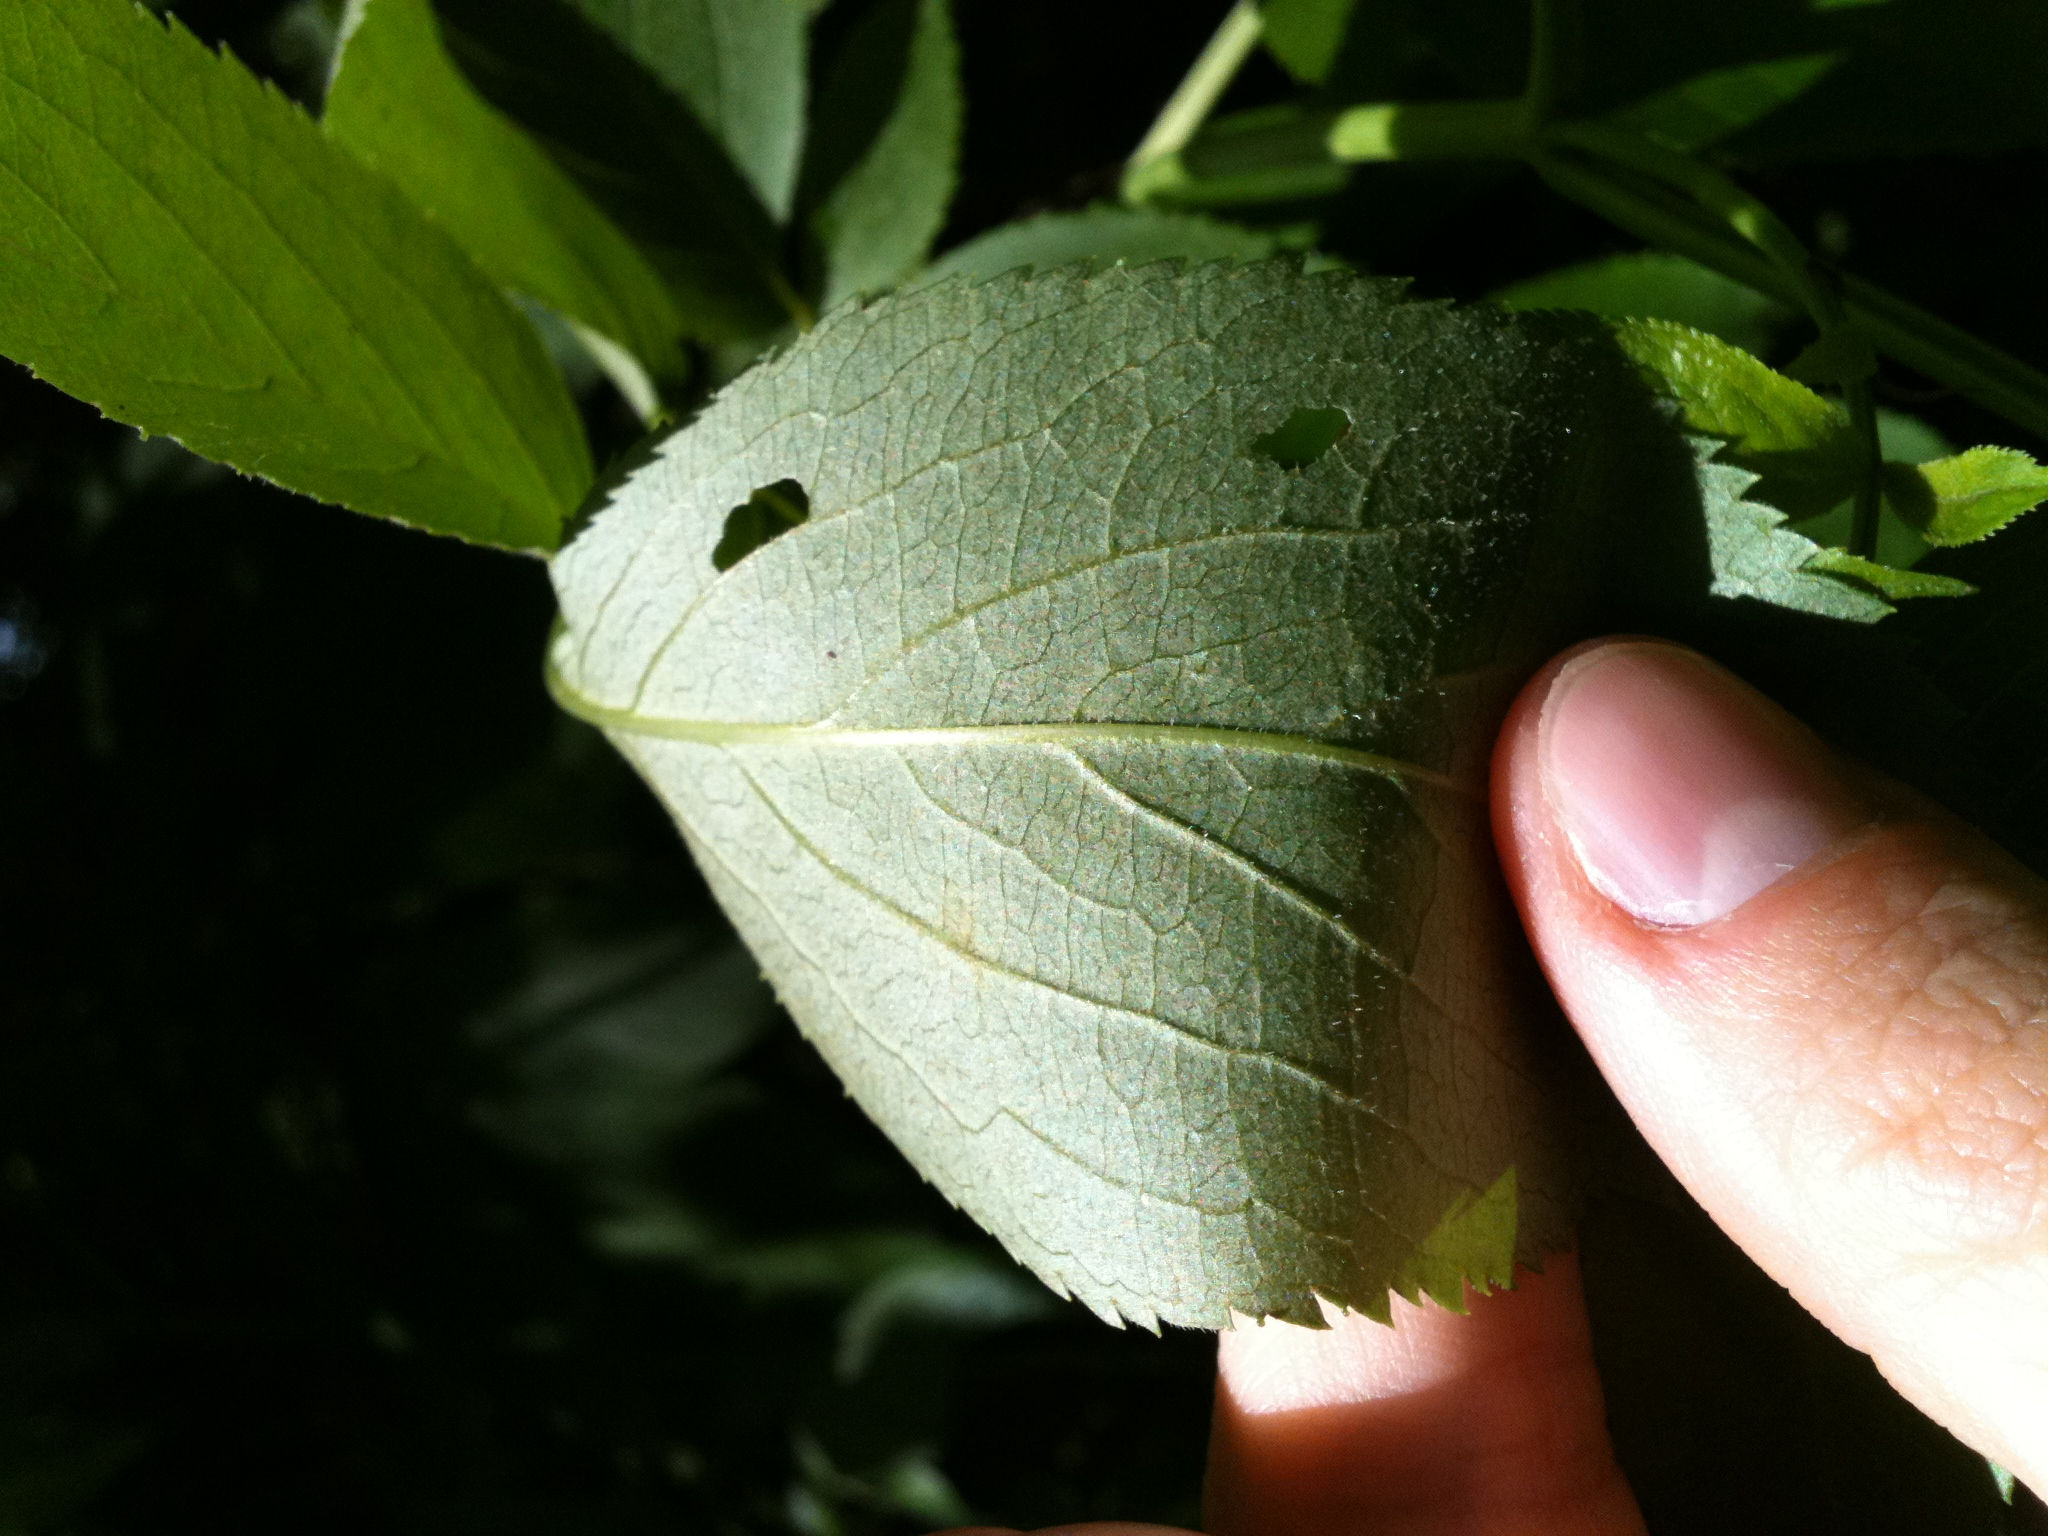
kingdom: Plantae
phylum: Tracheophyta
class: Magnoliopsida
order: Dipsacales
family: Viburnaceae
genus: Sambucus
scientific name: Sambucus canadensis
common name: American elder
